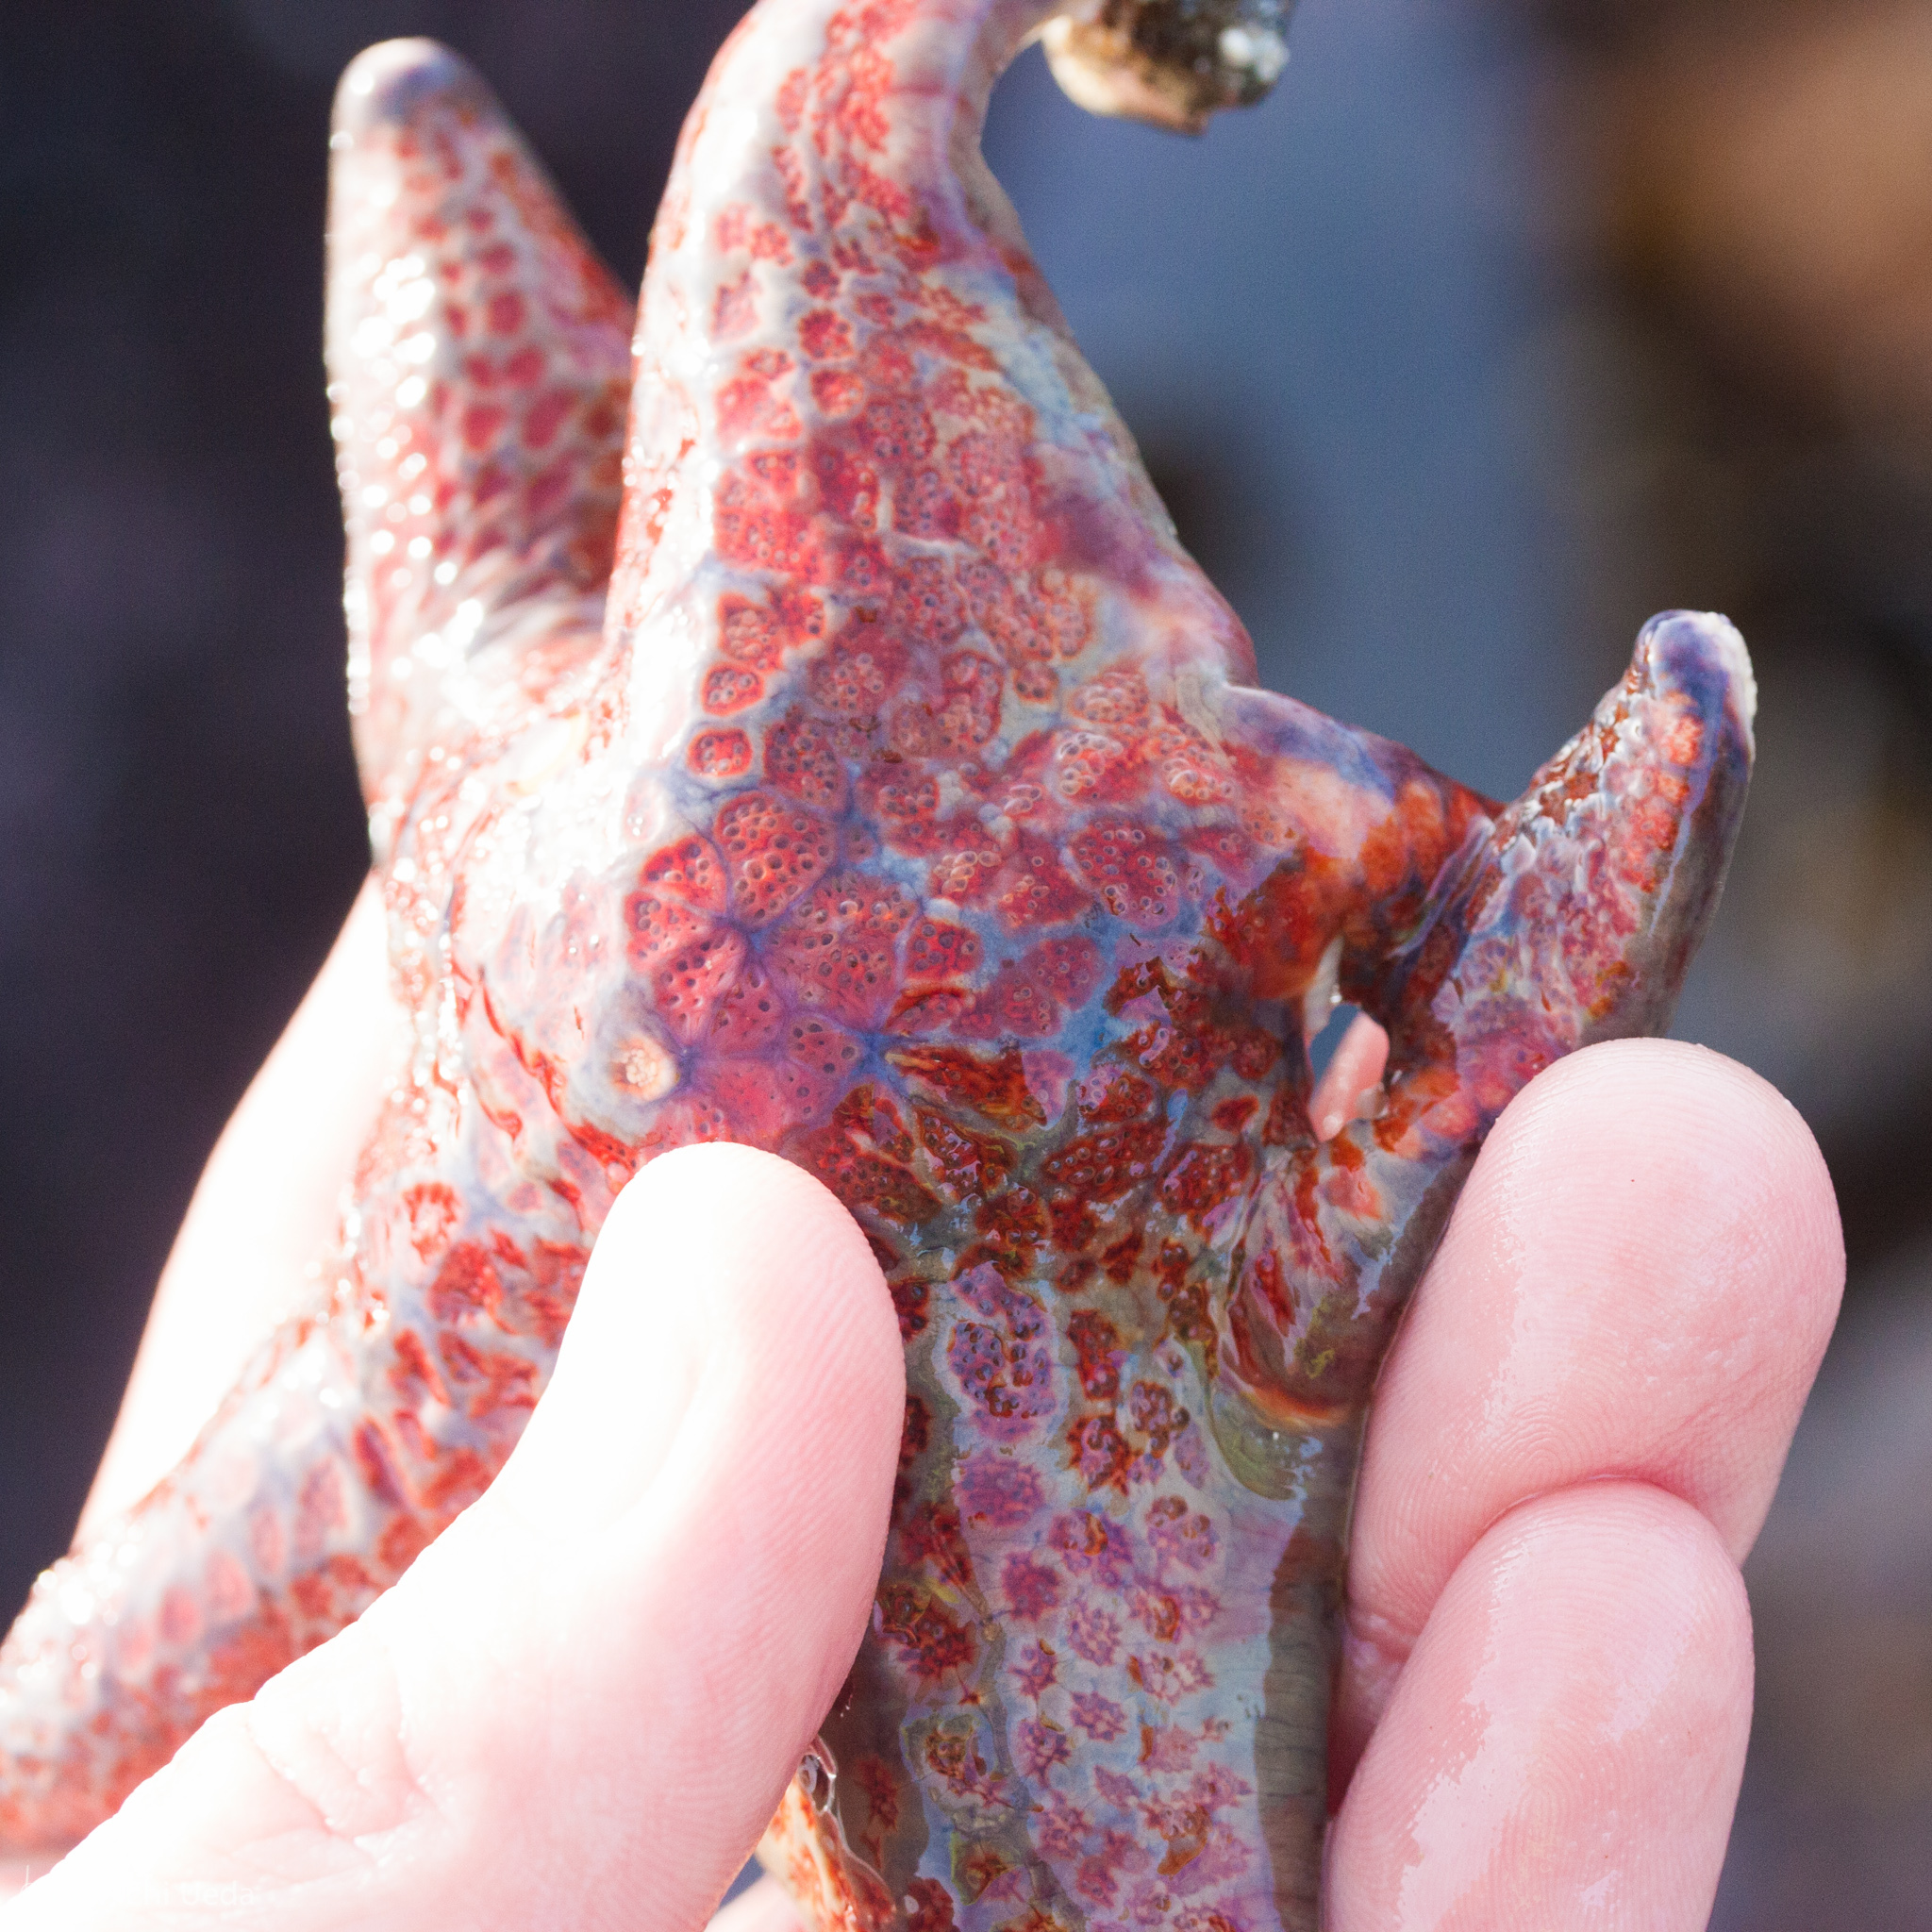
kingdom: Animalia
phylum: Echinodermata
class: Asteroidea
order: Valvatida
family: Asteropseidae
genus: Dermasterias
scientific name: Dermasterias imbricata
